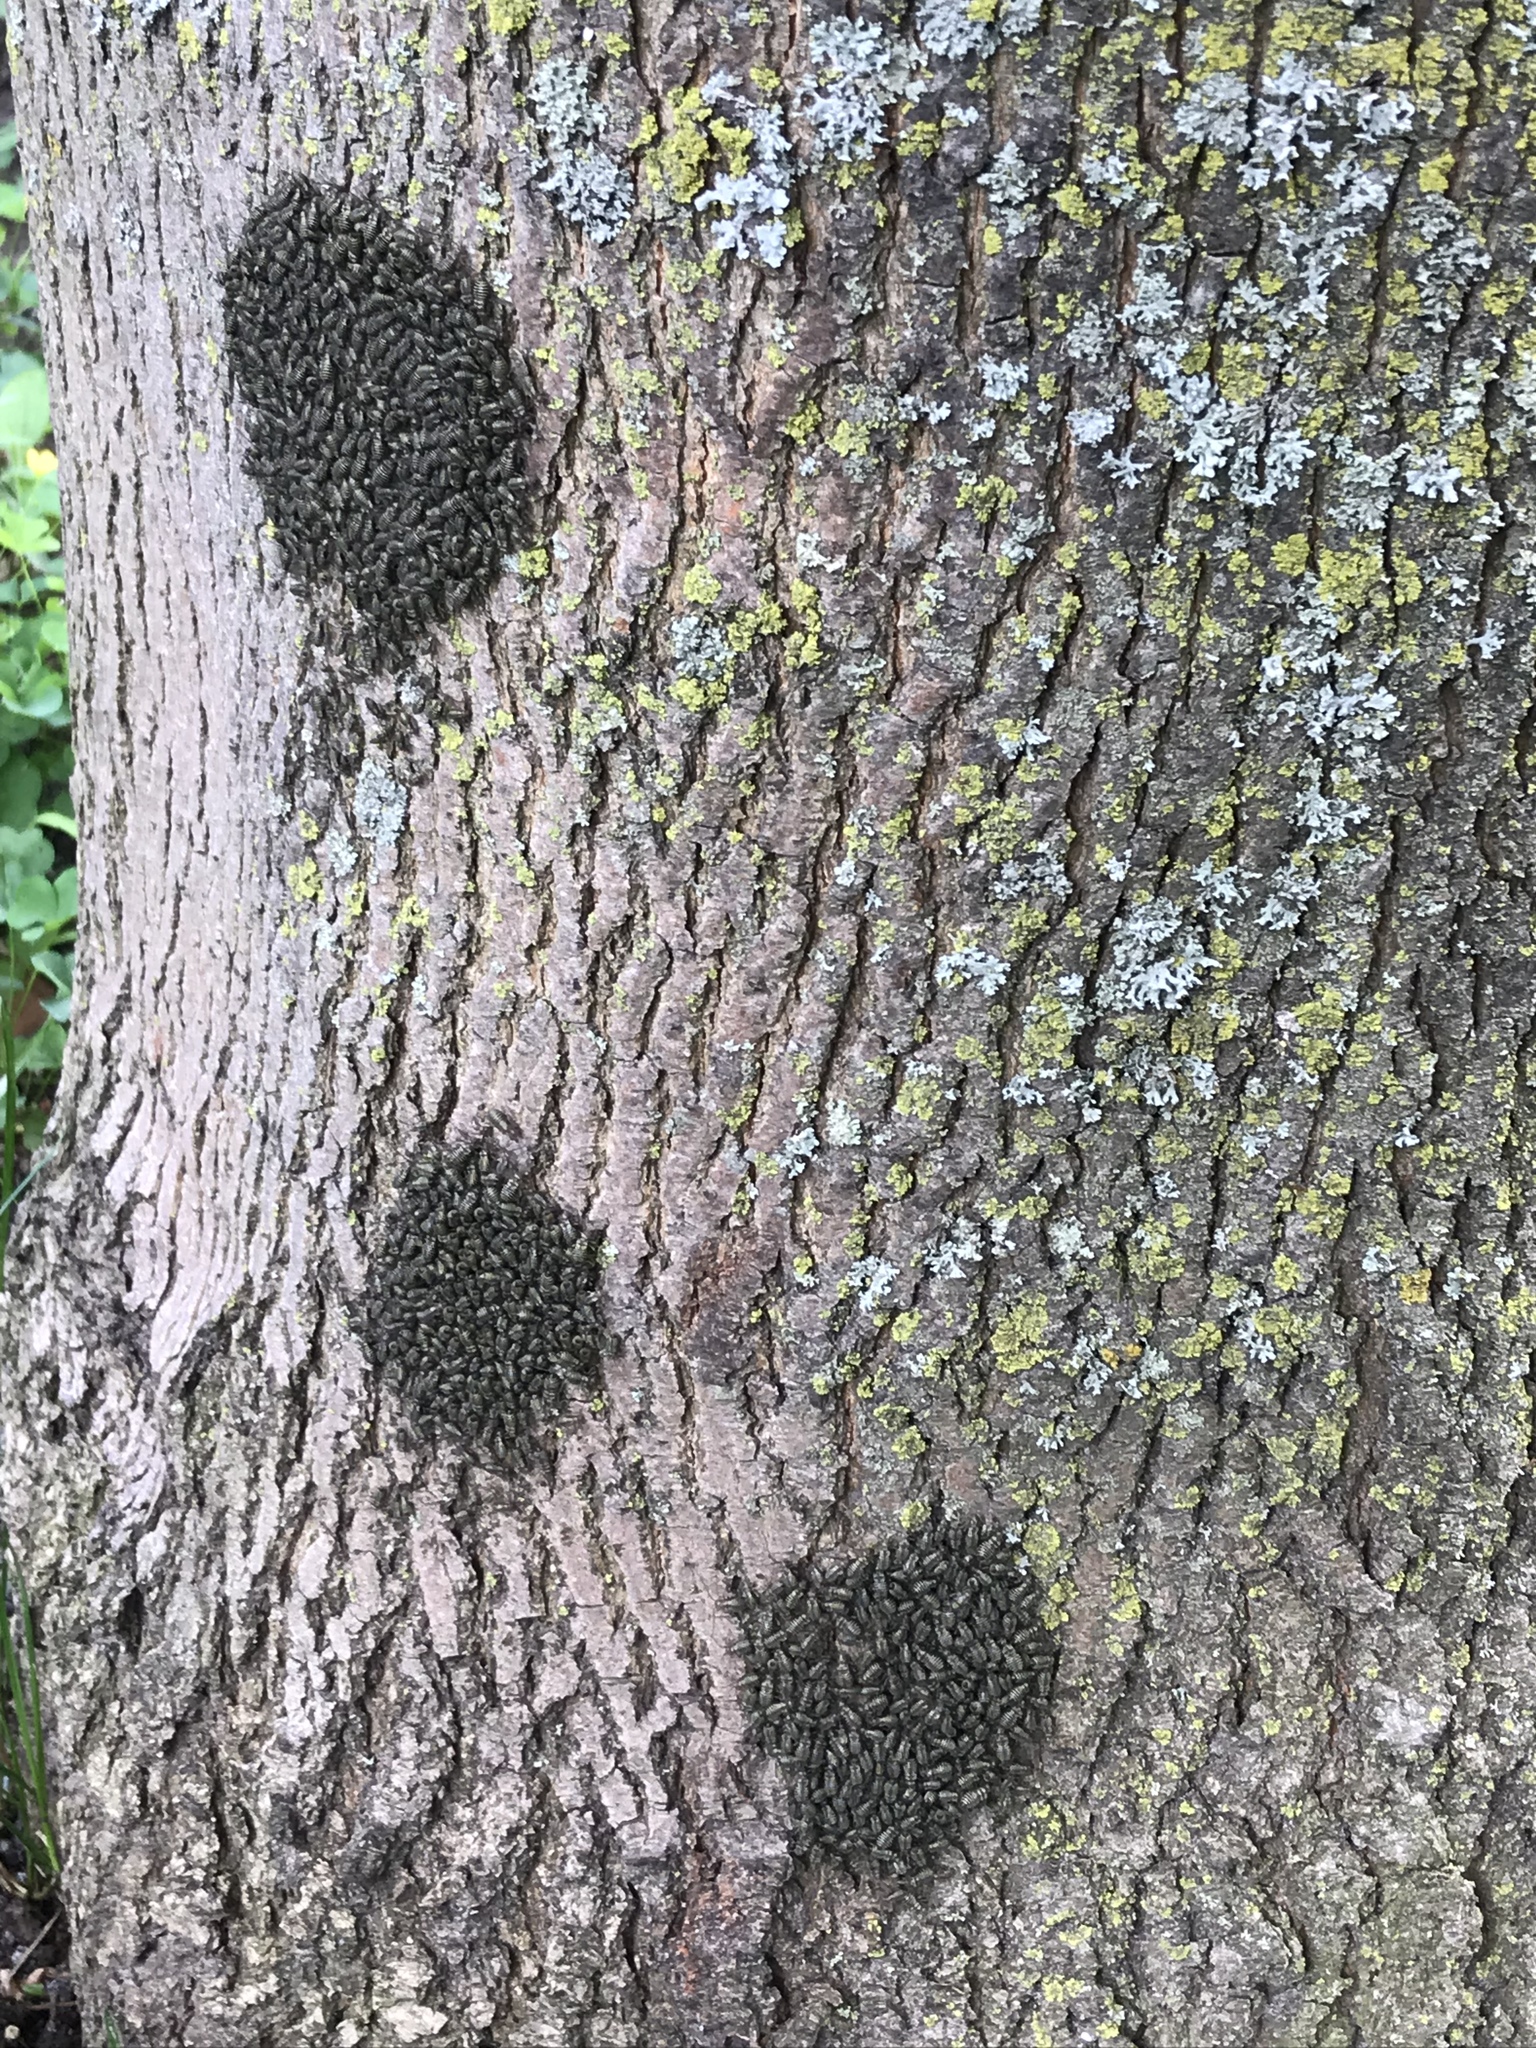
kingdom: Animalia
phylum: Arthropoda
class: Insecta
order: Psocodea
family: Psocidae
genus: Cerastipsocus
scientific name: Cerastipsocus venosus
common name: Tree cattle
